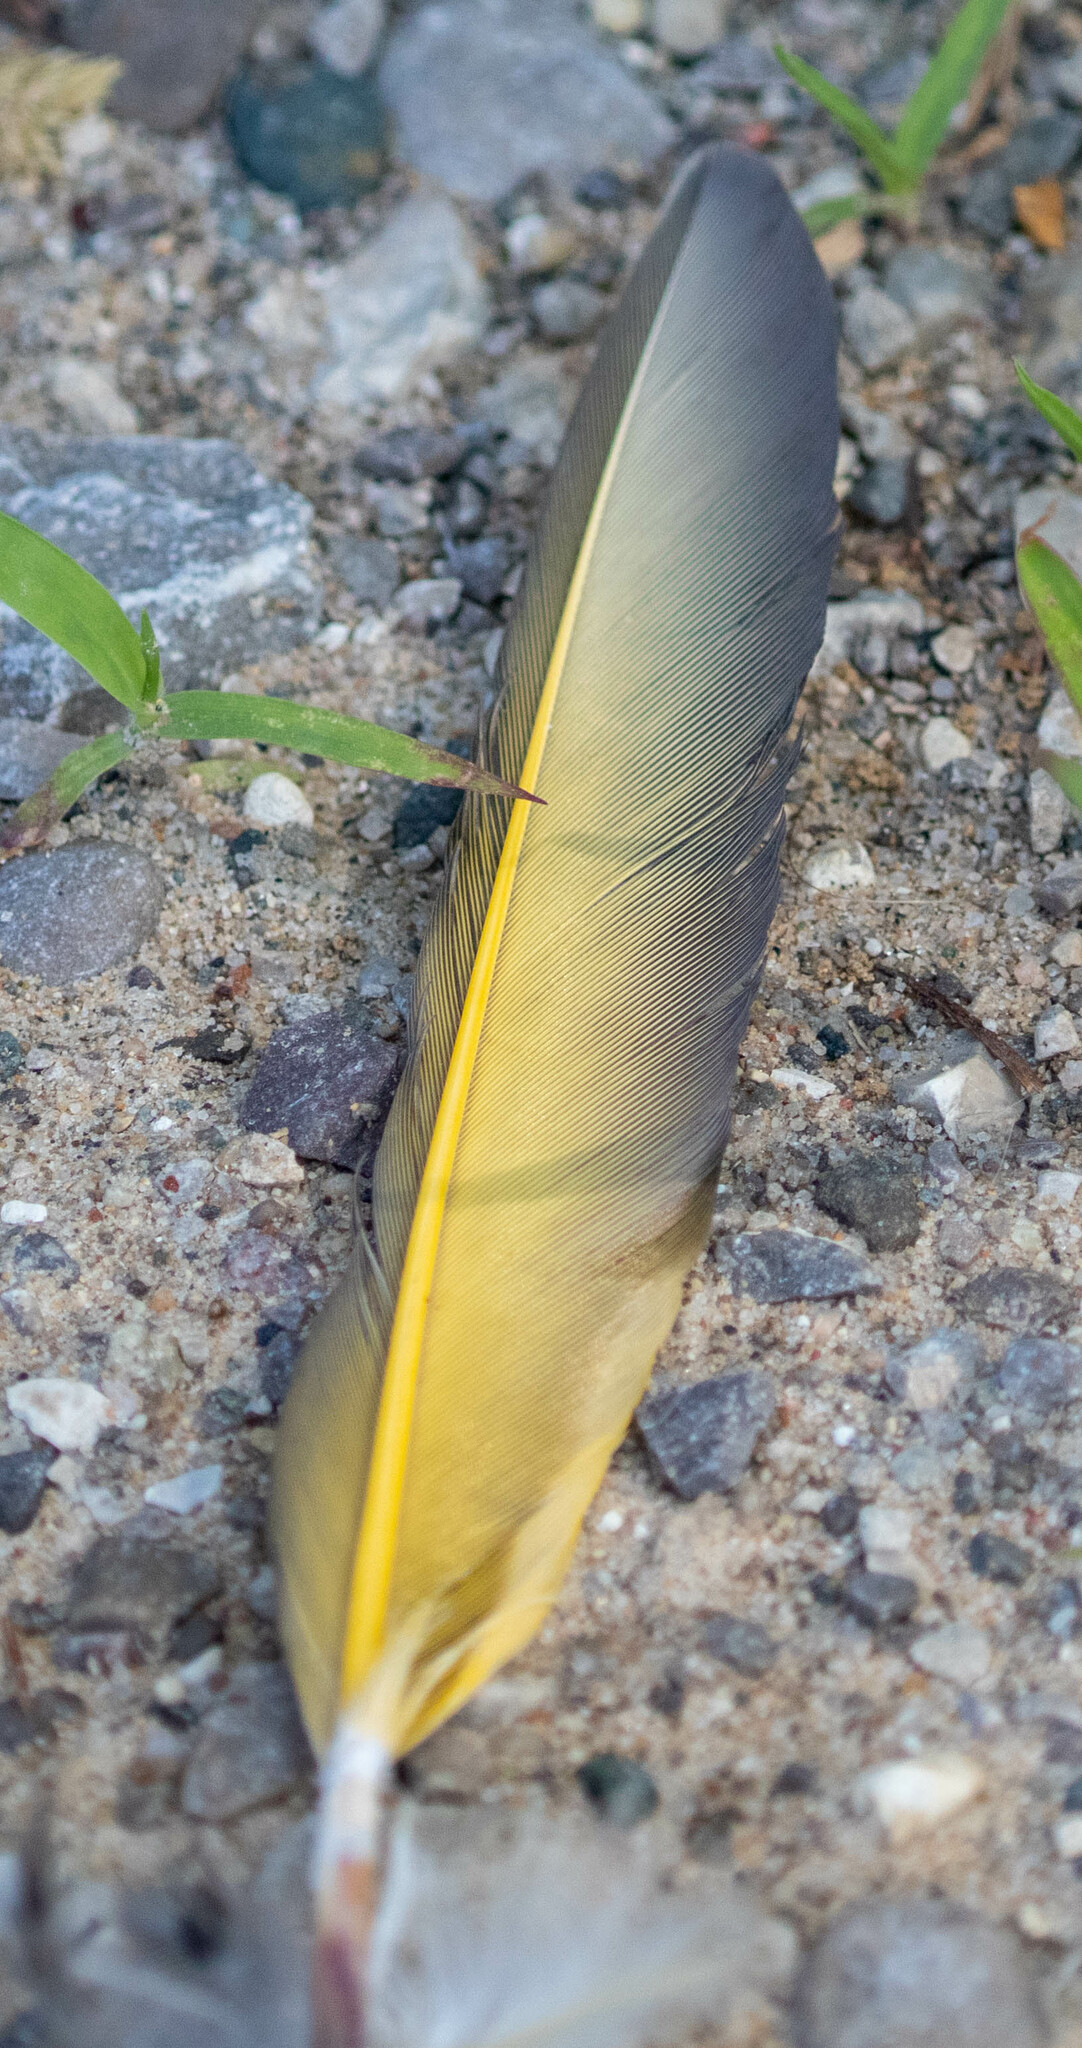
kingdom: Animalia
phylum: Chordata
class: Aves
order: Piciformes
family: Picidae
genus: Colaptes
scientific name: Colaptes auratus
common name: Northern flicker
